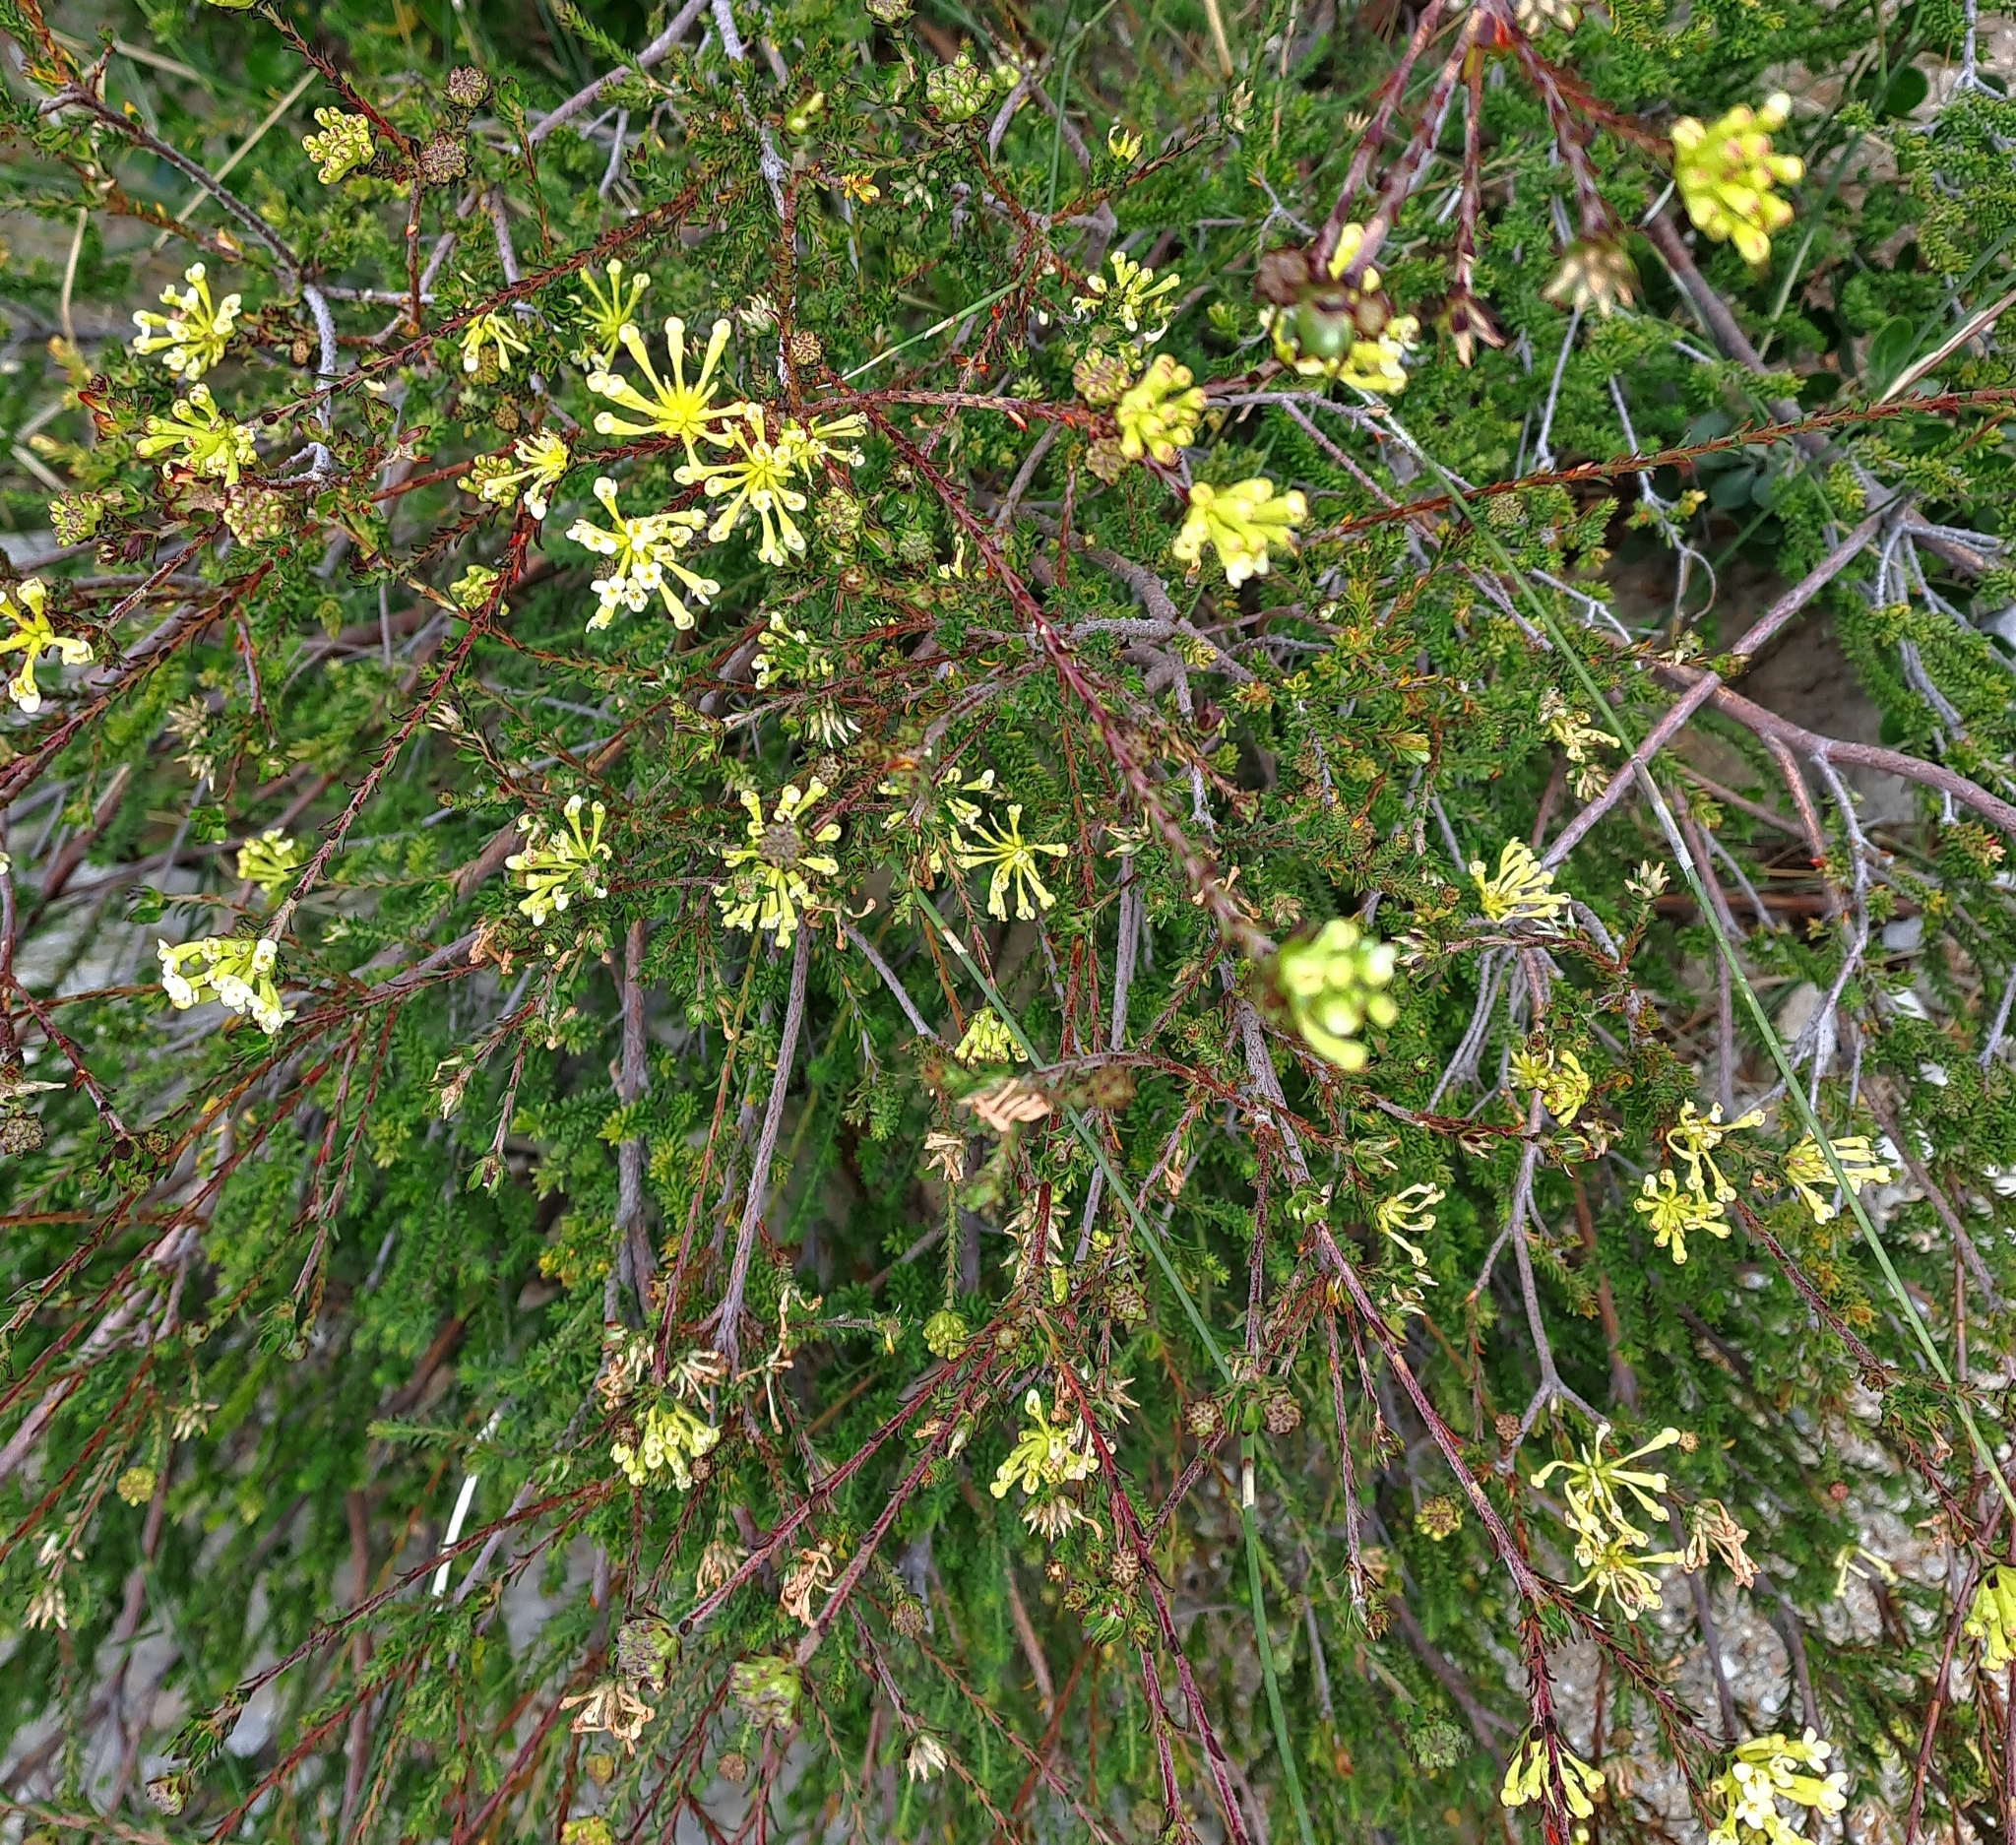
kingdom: Plantae
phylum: Tracheophyta
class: Magnoliopsida
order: Malvales
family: Thymelaeaceae
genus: Gnidia
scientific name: Gnidia squarrosa
